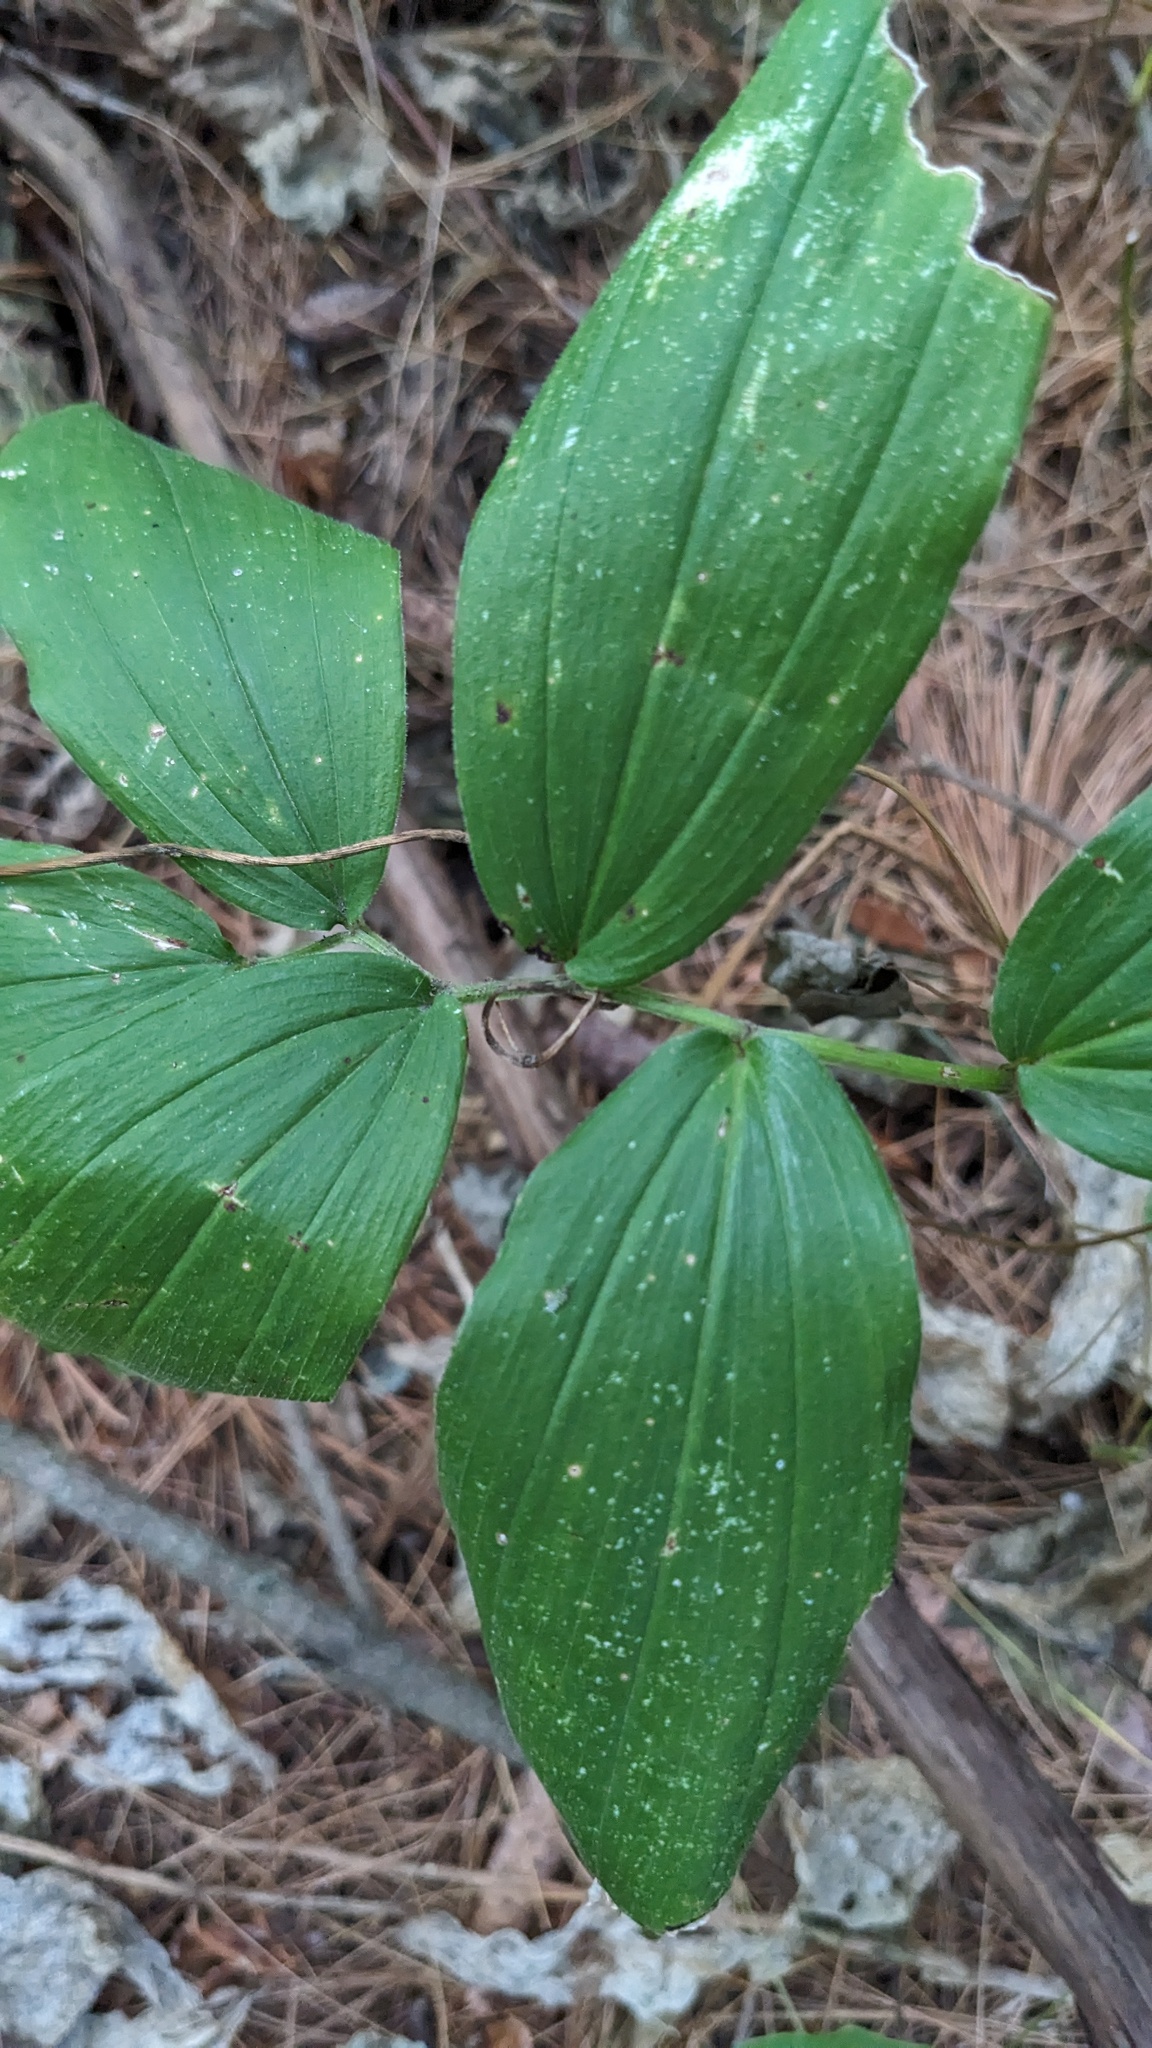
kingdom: Plantae
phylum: Tracheophyta
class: Liliopsida
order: Asparagales
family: Asparagaceae
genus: Maianthemum
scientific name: Maianthemum racemosum
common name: False spikenard
